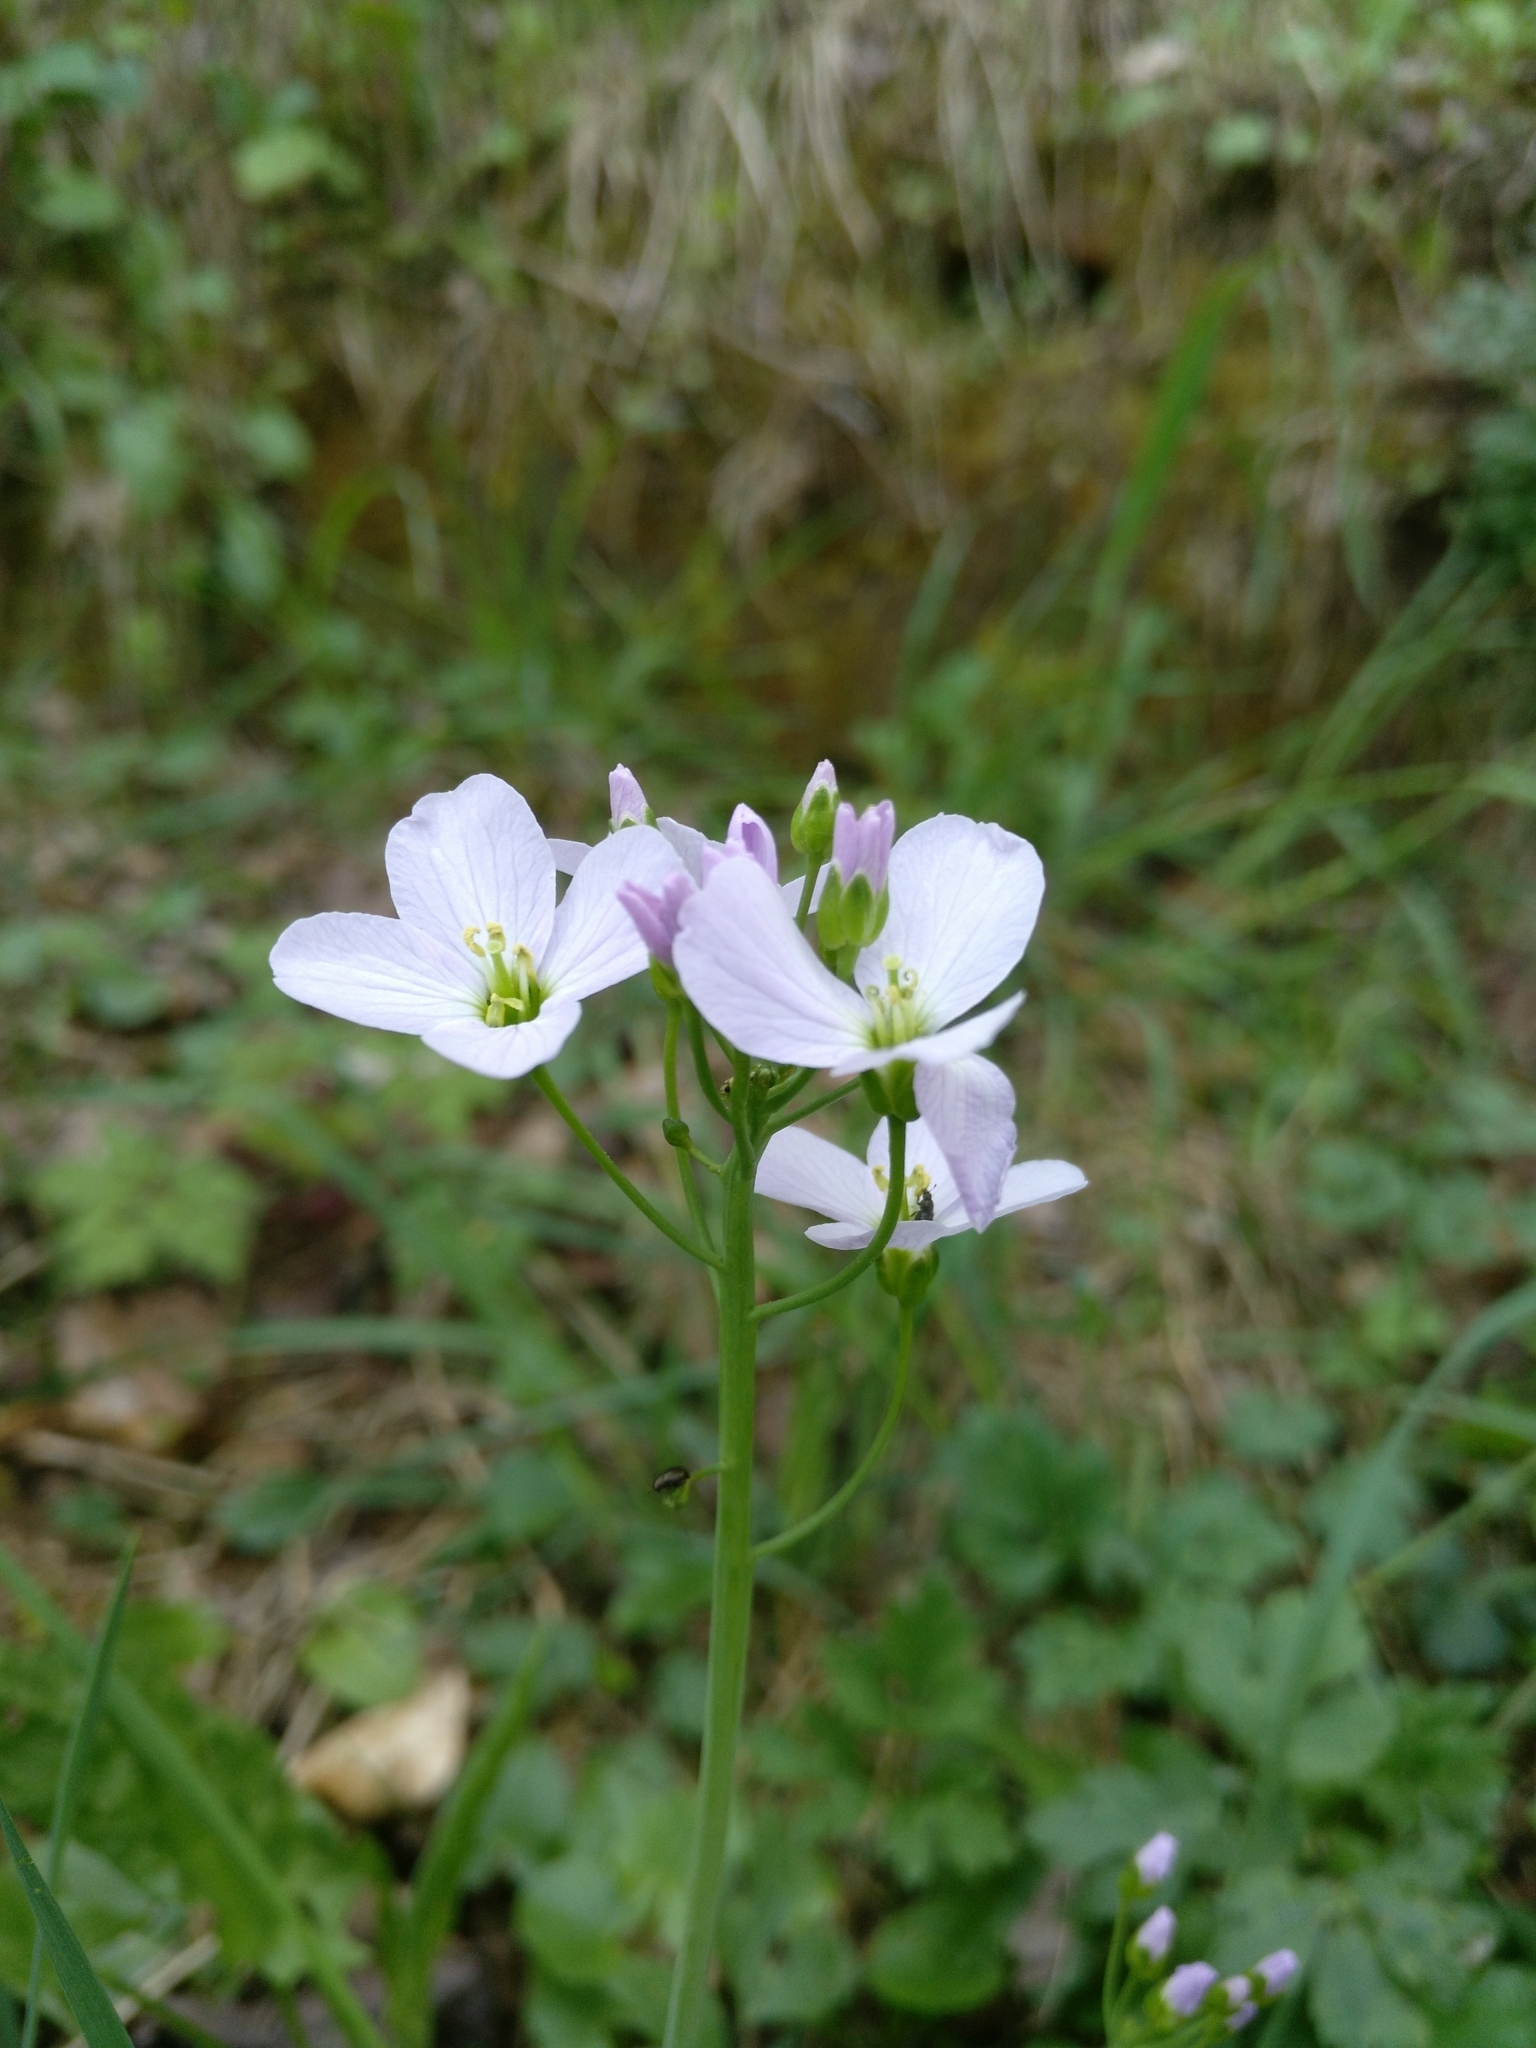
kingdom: Plantae
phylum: Tracheophyta
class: Magnoliopsida
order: Brassicales
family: Brassicaceae
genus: Cardamine
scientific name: Cardamine pratensis
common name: Cuckoo flower
